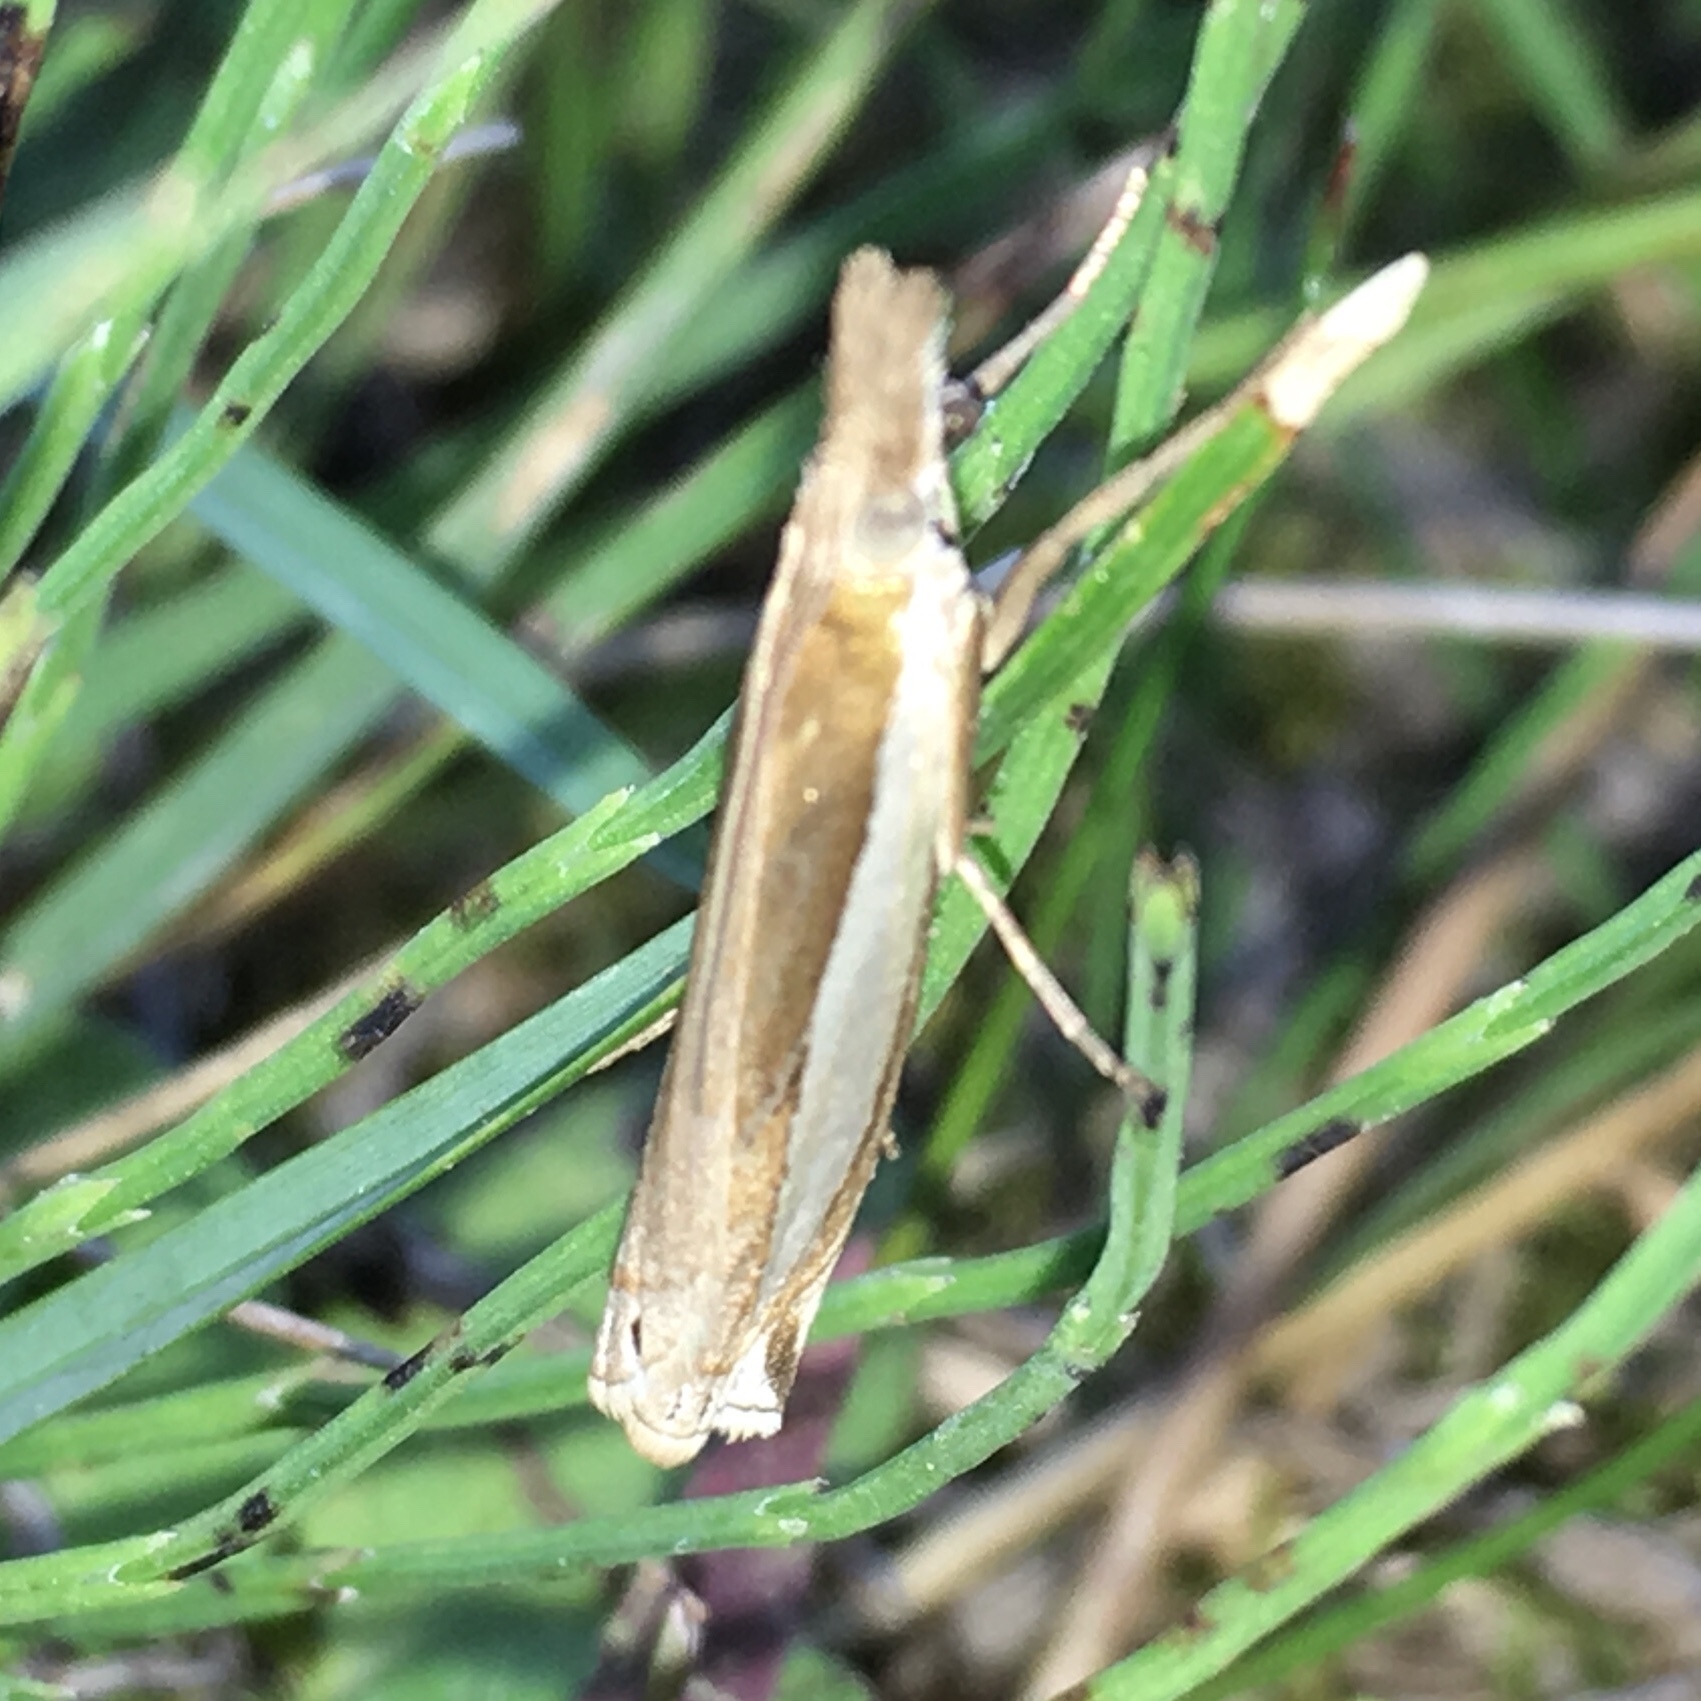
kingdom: Animalia
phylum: Arthropoda
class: Insecta
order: Lepidoptera
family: Crambidae
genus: Crambus
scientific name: Crambus praefectellus
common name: Common grass-veneer
